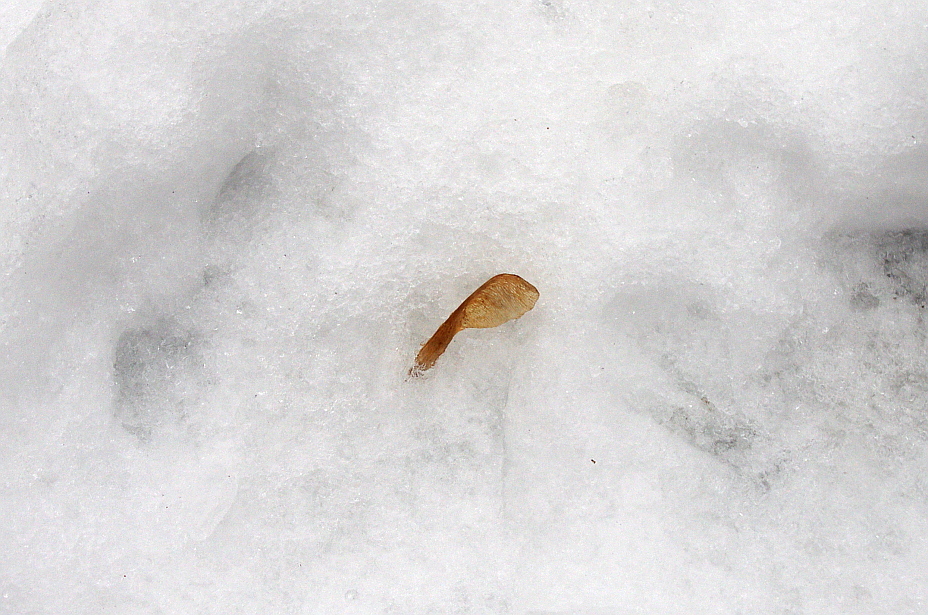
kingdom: Plantae
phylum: Tracheophyta
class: Magnoliopsida
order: Sapindales
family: Sapindaceae
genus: Acer
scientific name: Acer negundo
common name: Ashleaf maple
